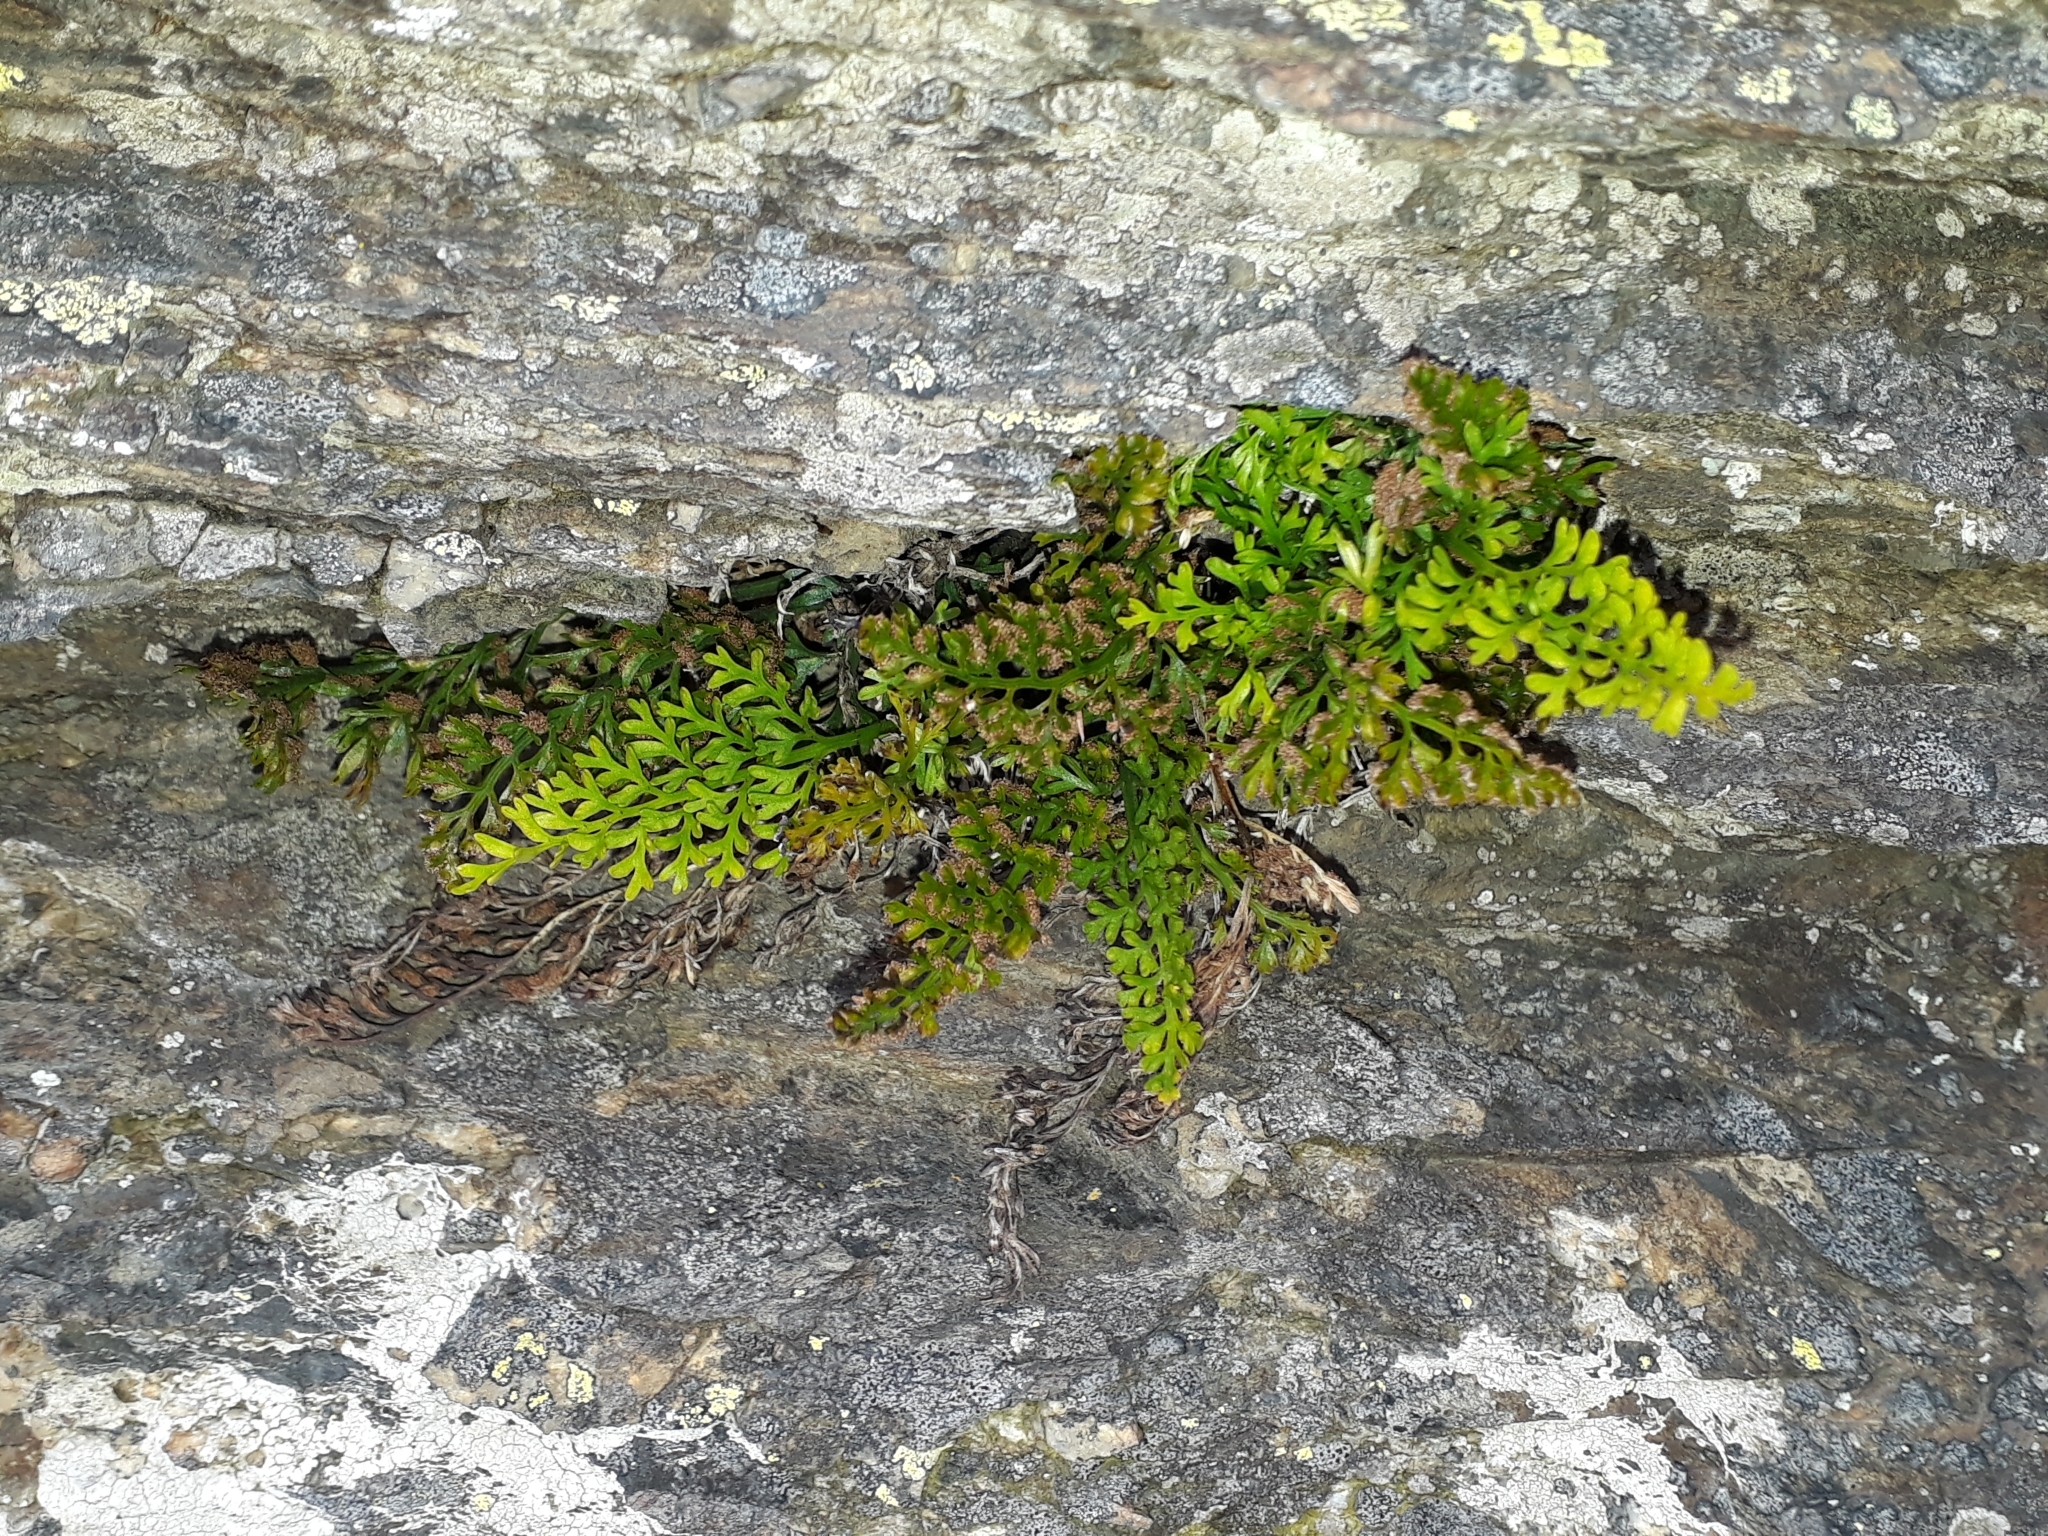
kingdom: Plantae
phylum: Tracheophyta
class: Polypodiopsida
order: Polypodiales
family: Aspleniaceae
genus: Asplenium
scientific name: Asplenium richardii
